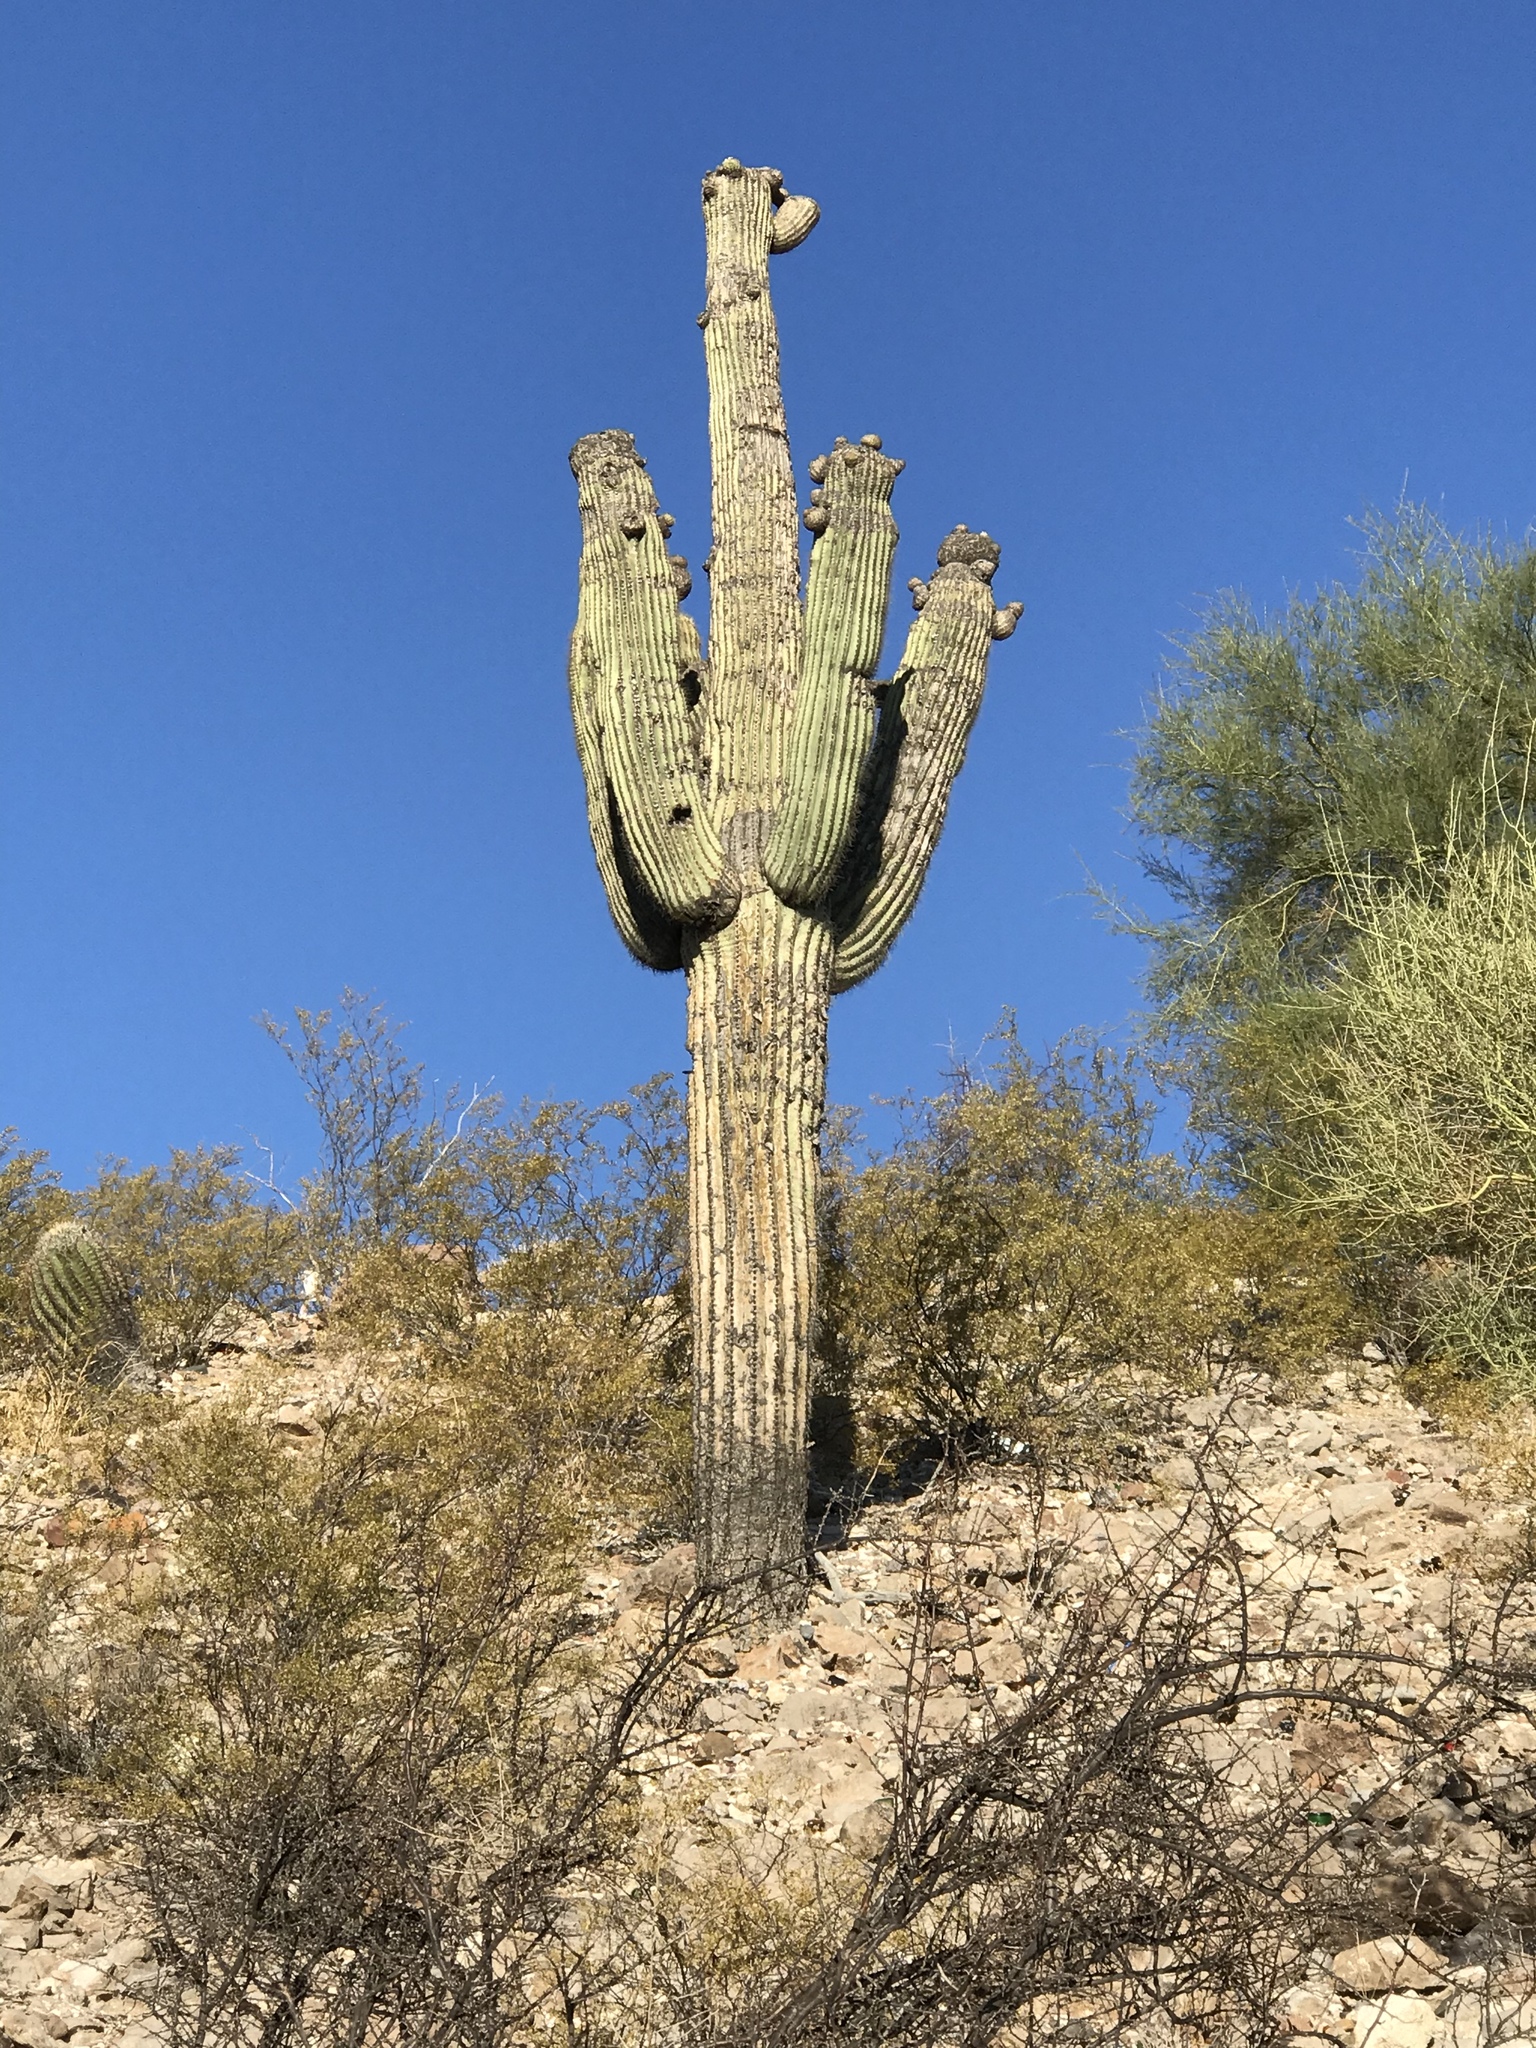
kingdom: Plantae
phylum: Tracheophyta
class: Magnoliopsida
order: Caryophyllales
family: Cactaceae
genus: Carnegiea
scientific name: Carnegiea gigantea
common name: Saguaro
